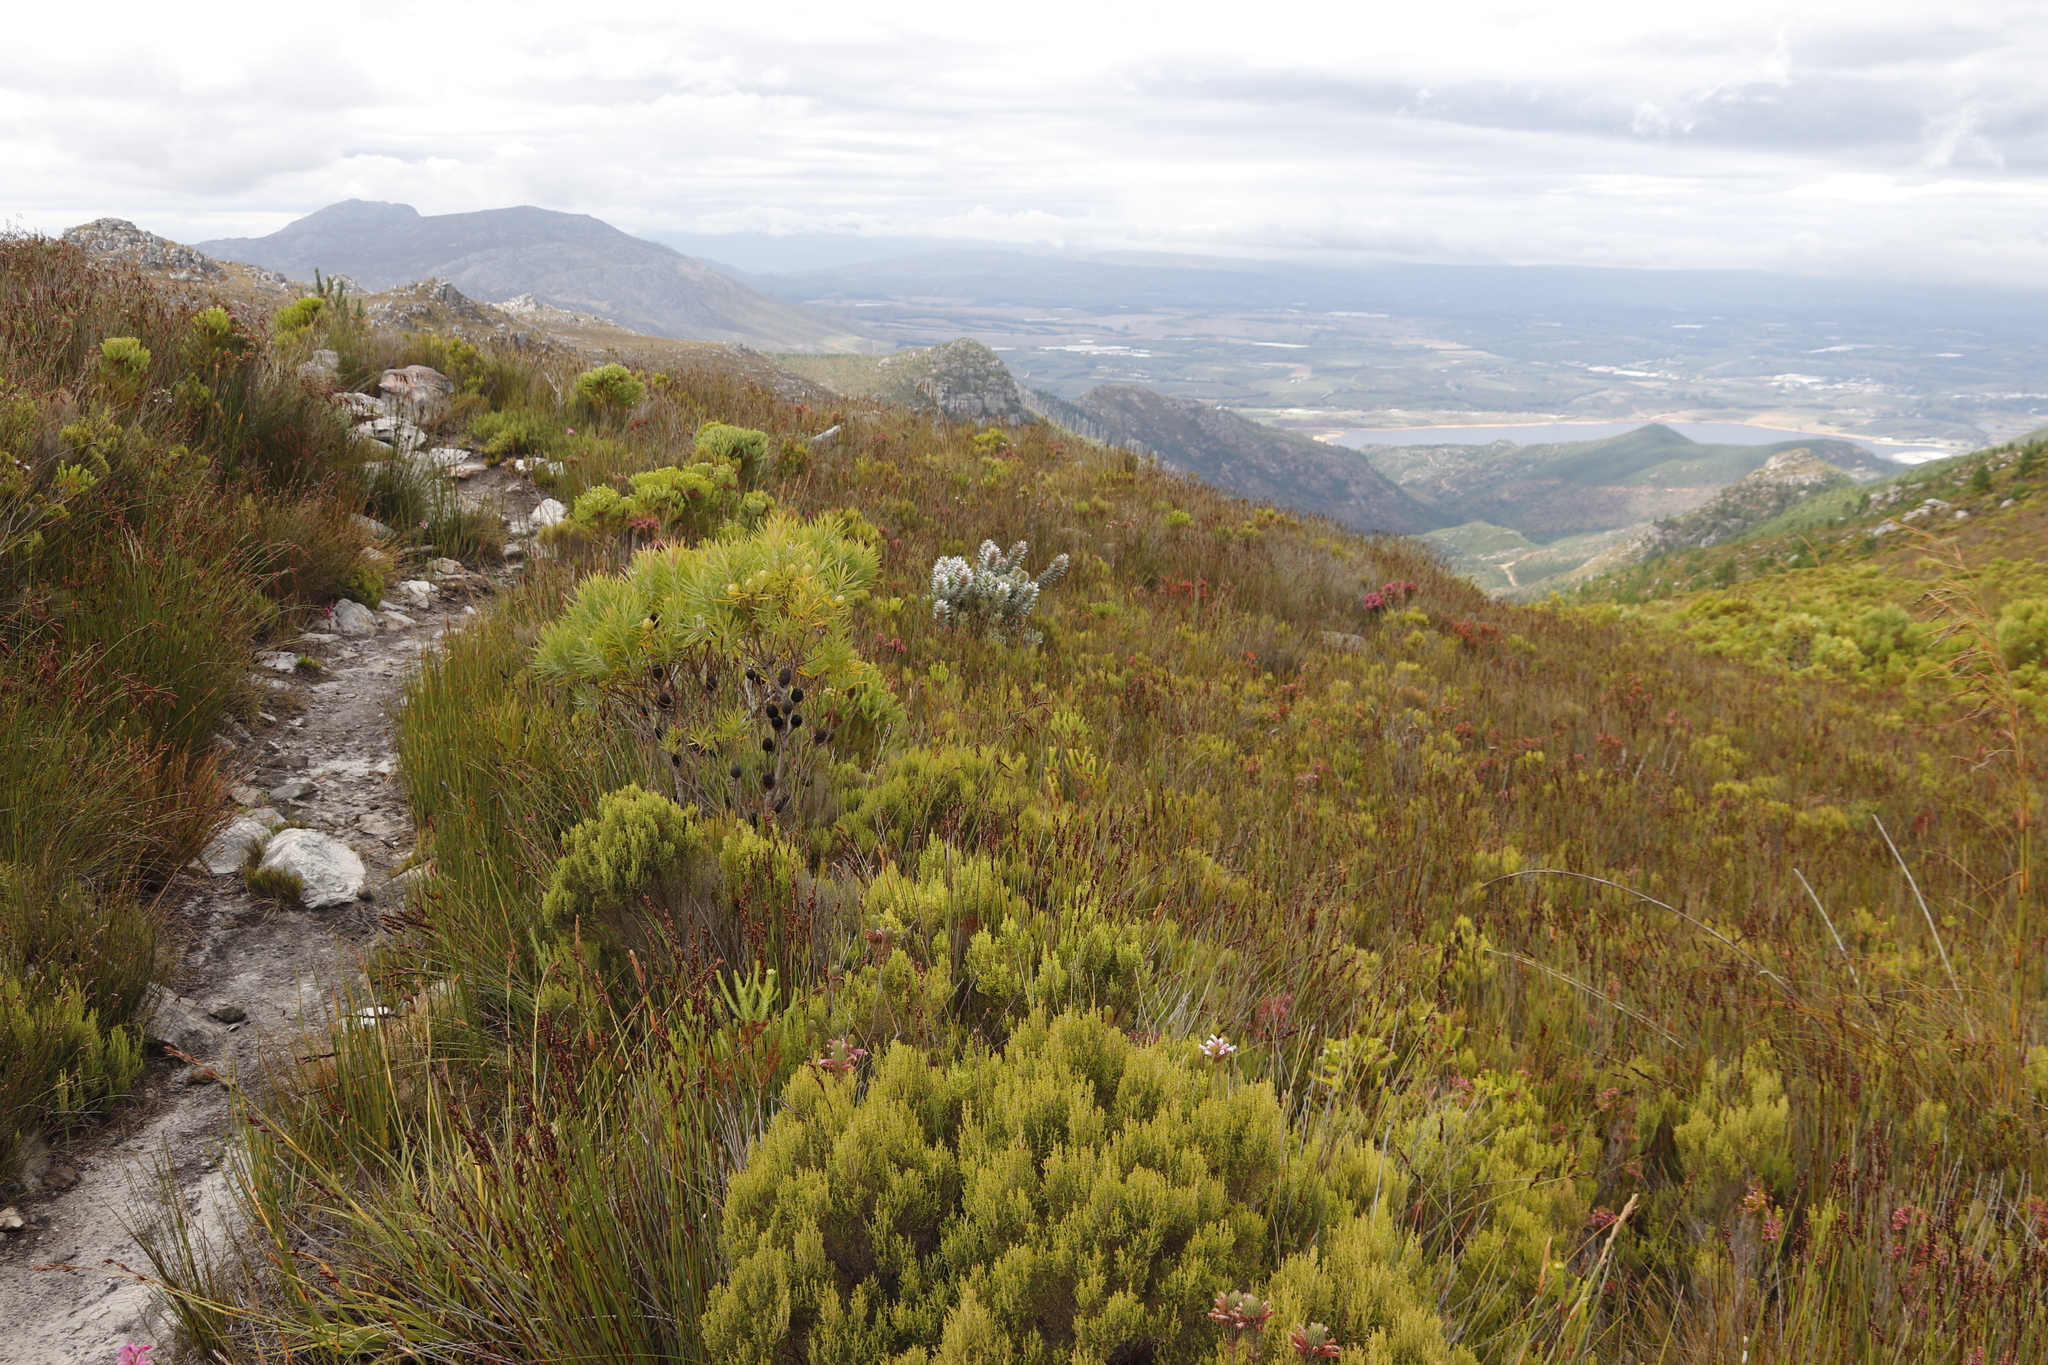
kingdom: Plantae
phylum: Tracheophyta
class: Magnoliopsida
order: Proteales
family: Proteaceae
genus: Mimetes
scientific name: Mimetes argenteus
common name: Silver pagoda
